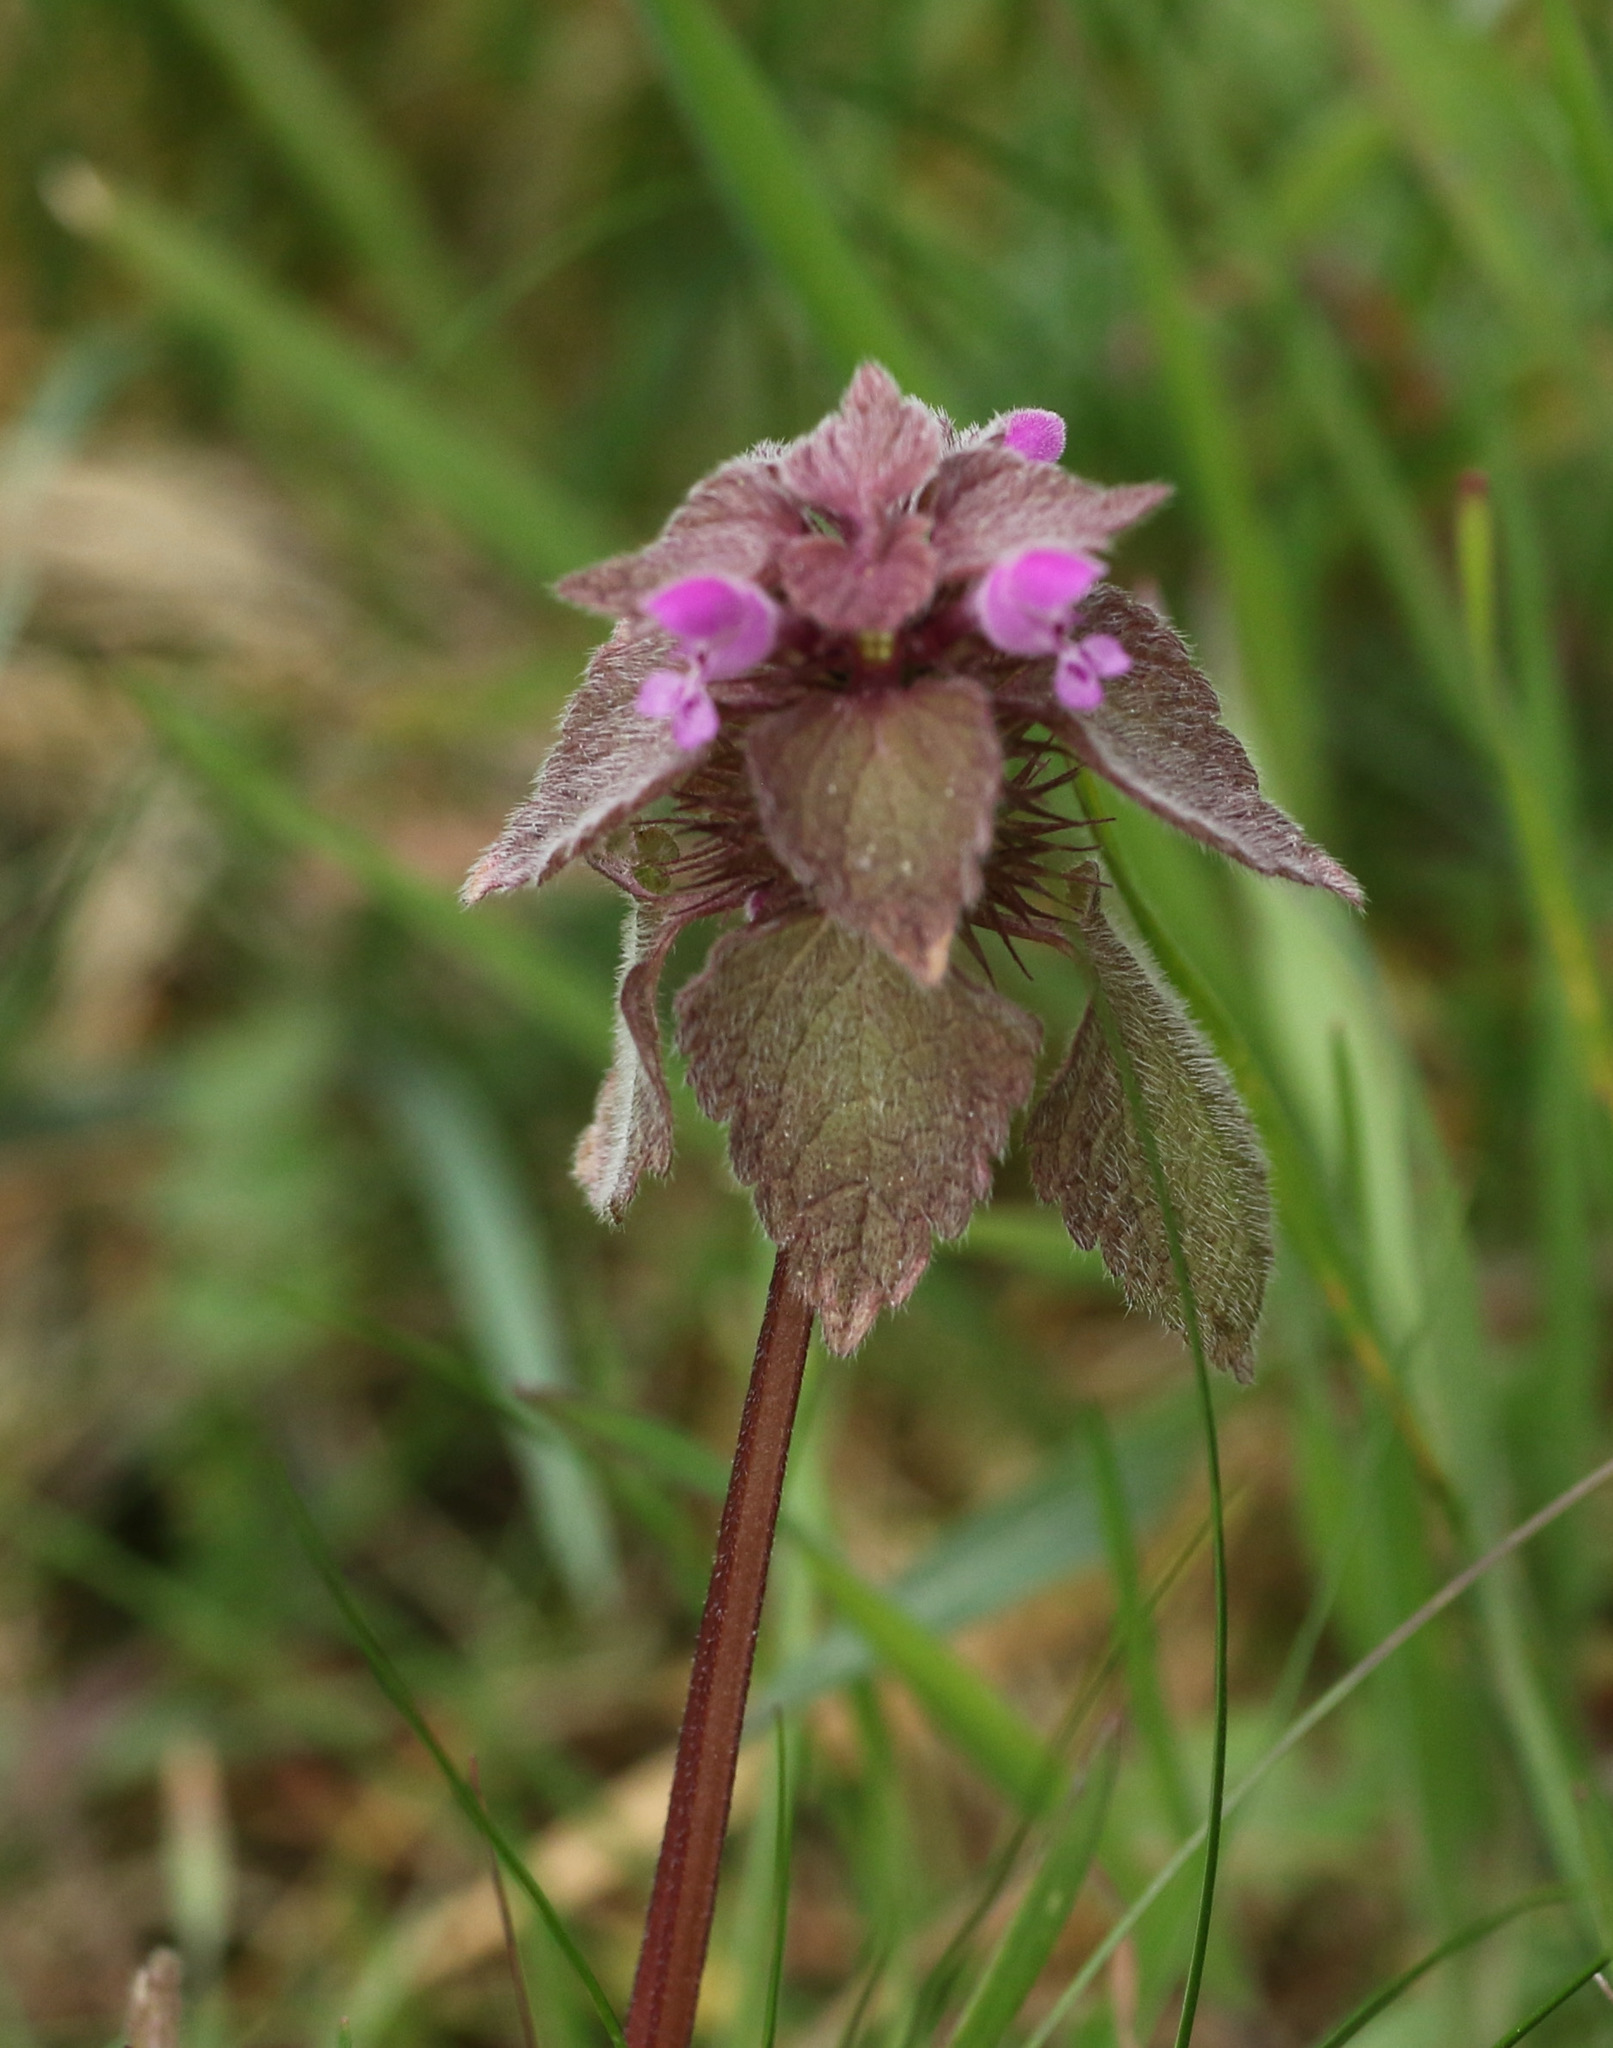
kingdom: Plantae
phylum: Tracheophyta
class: Magnoliopsida
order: Lamiales
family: Lamiaceae
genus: Lamium
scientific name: Lamium purpureum
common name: Red dead-nettle
